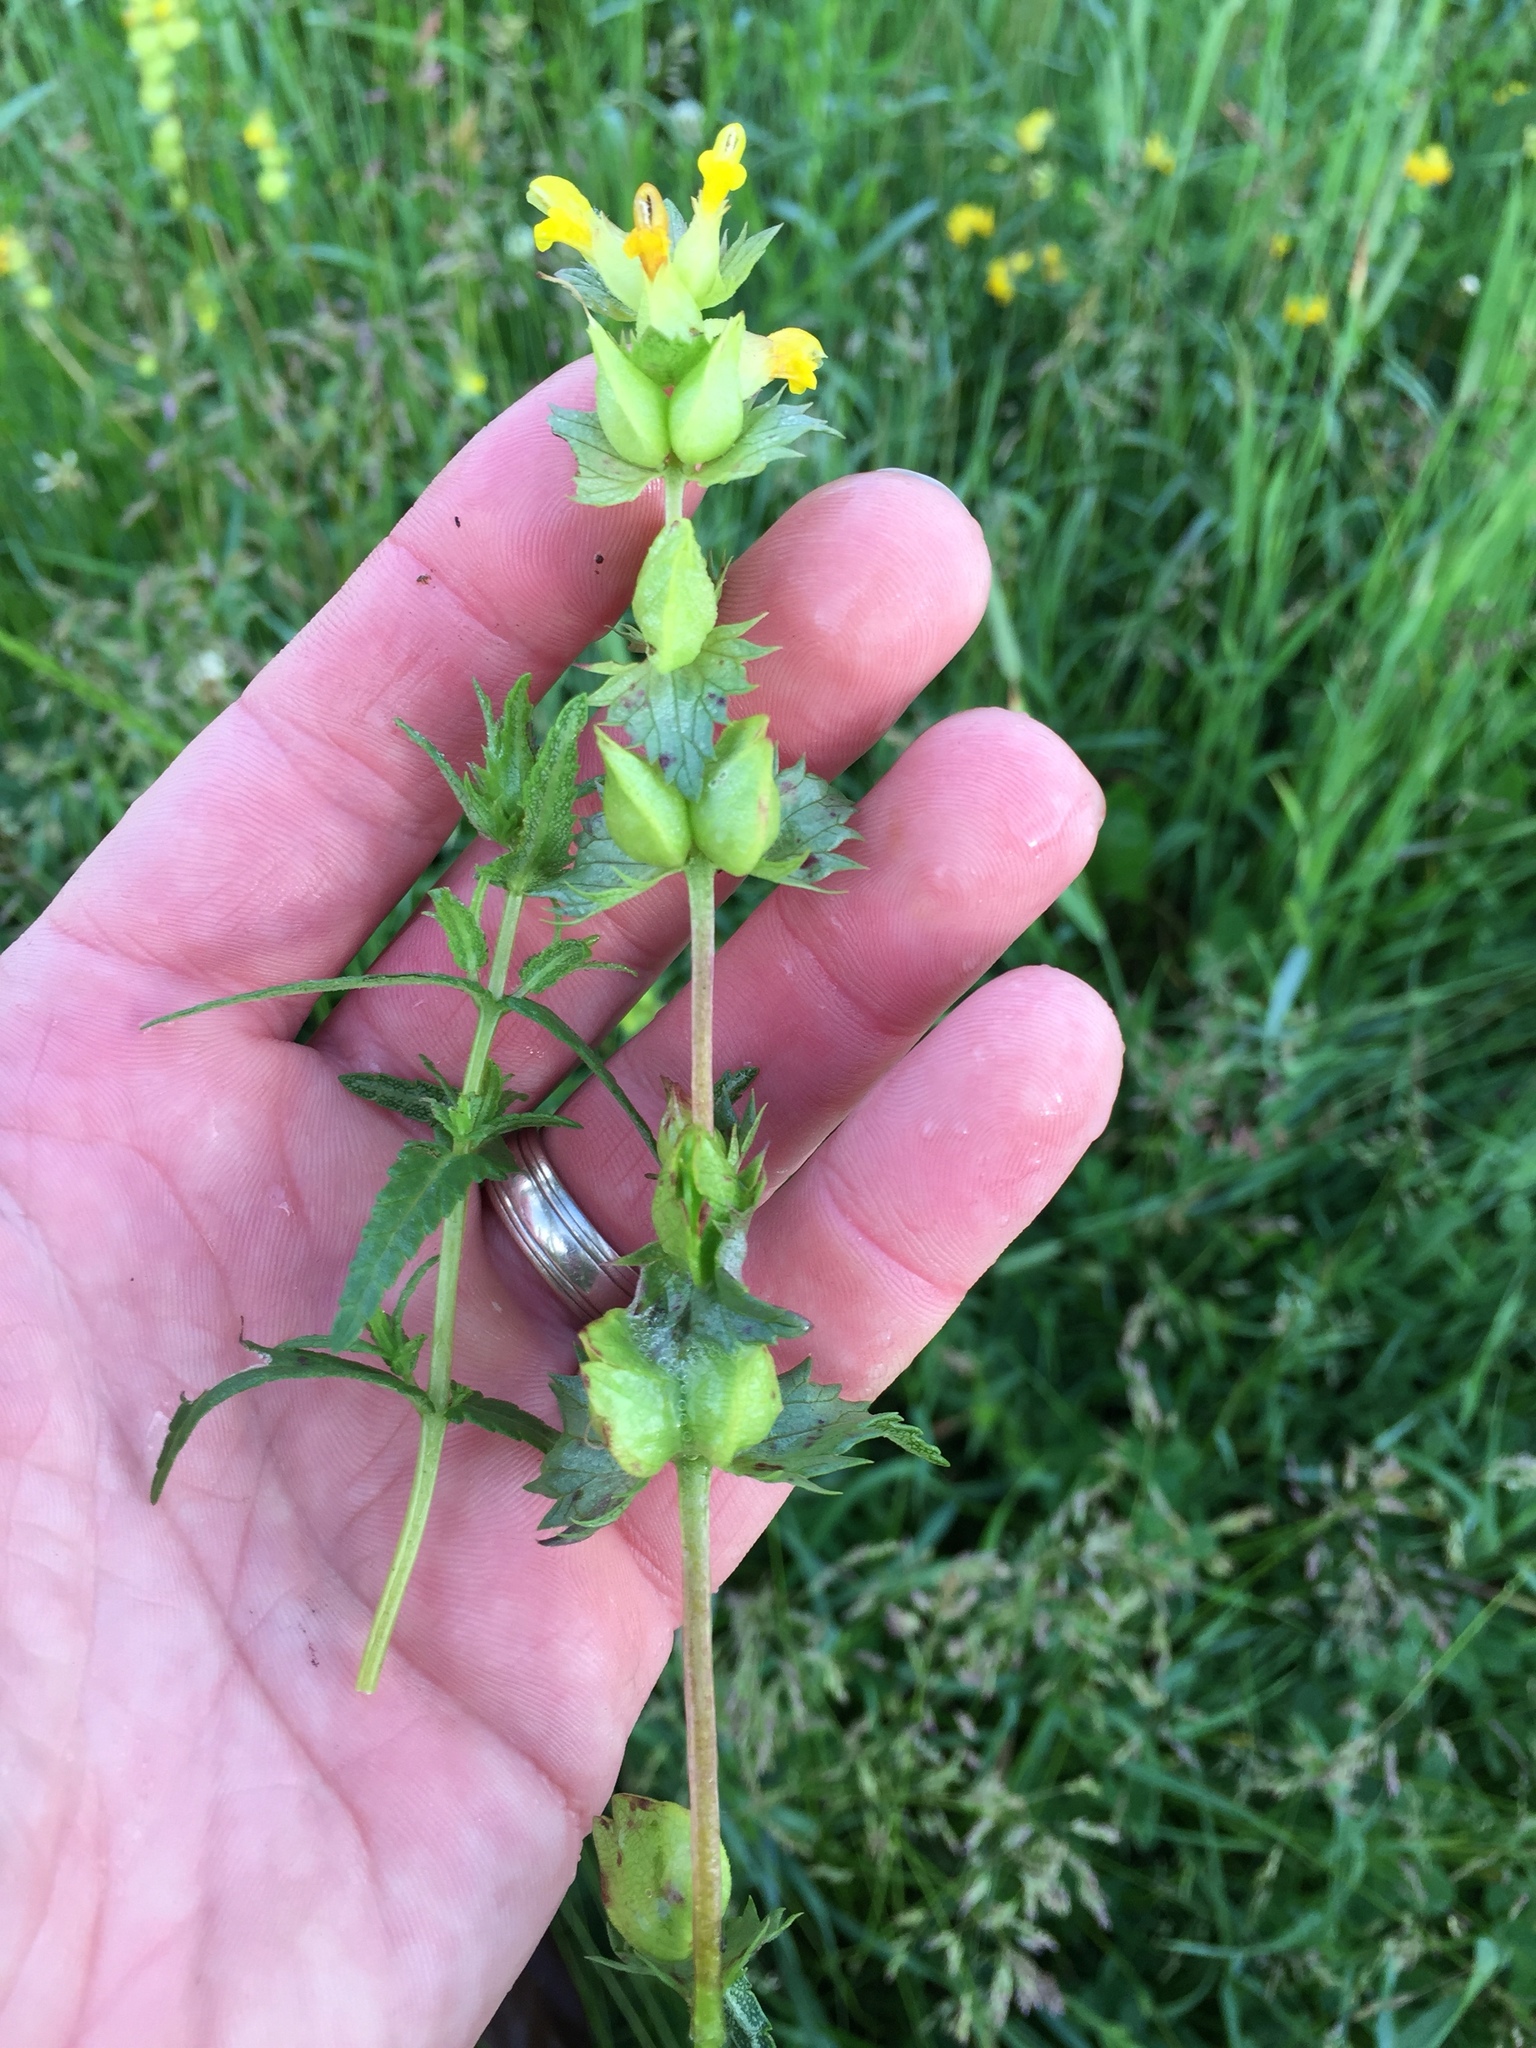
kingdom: Plantae
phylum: Tracheophyta
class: Magnoliopsida
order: Lamiales
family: Orobanchaceae
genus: Rhinanthus
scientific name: Rhinanthus minor
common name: Yellow-rattle
